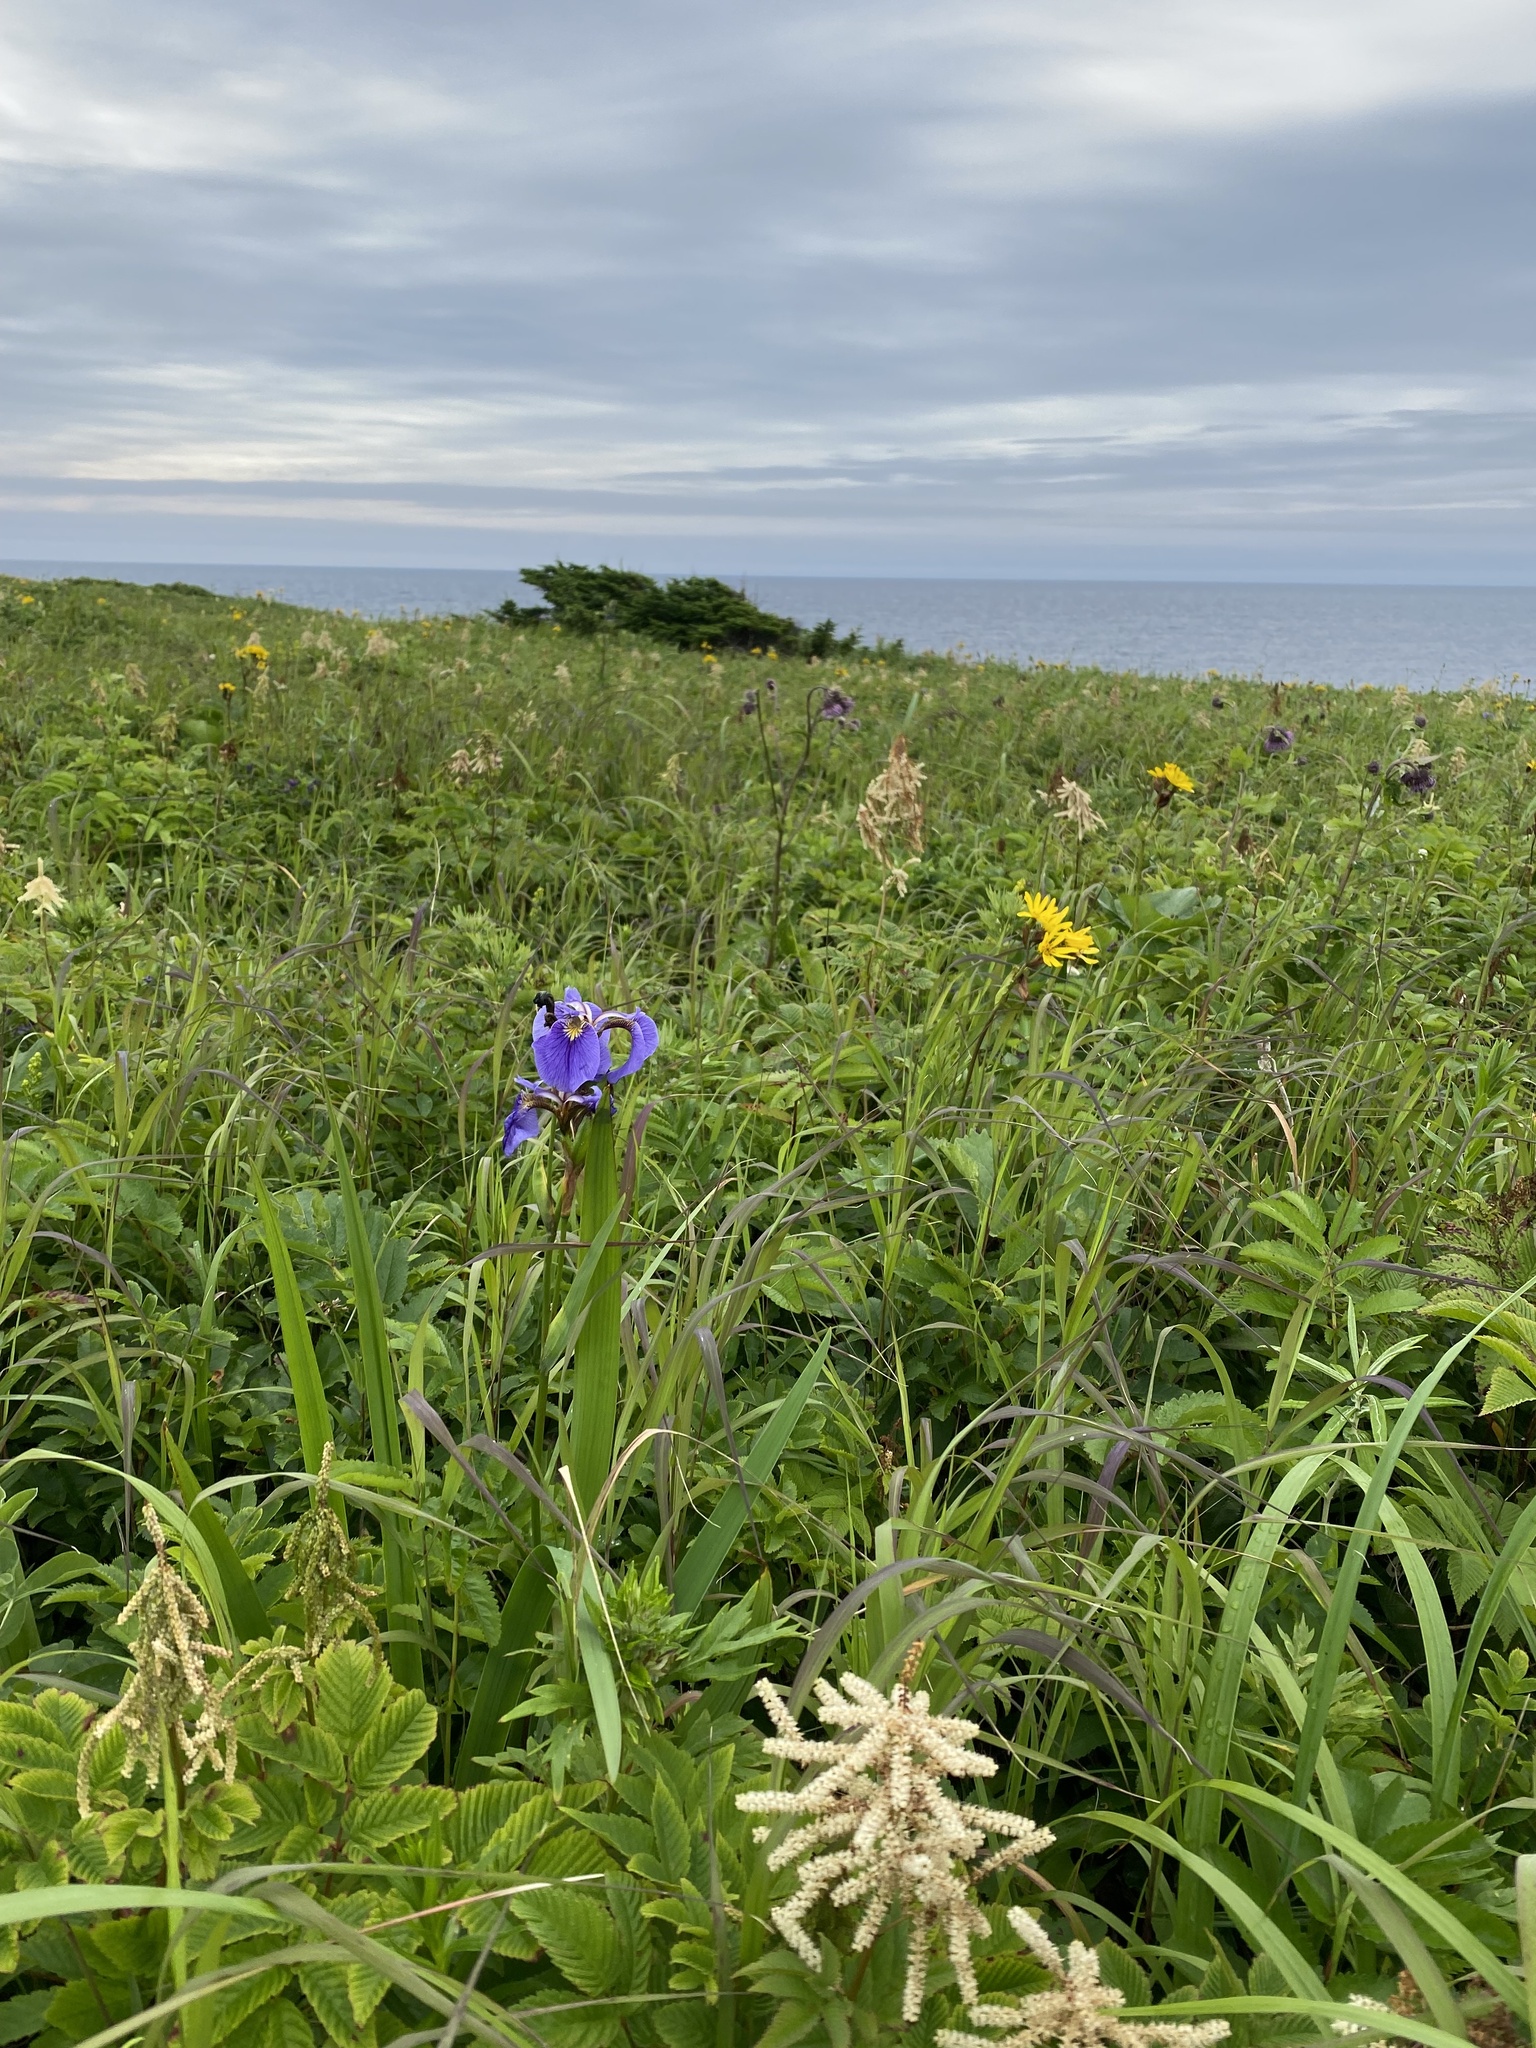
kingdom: Plantae
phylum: Tracheophyta
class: Liliopsida
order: Asparagales
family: Iridaceae
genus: Iris
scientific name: Iris setosa
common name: Arctic blue flag
